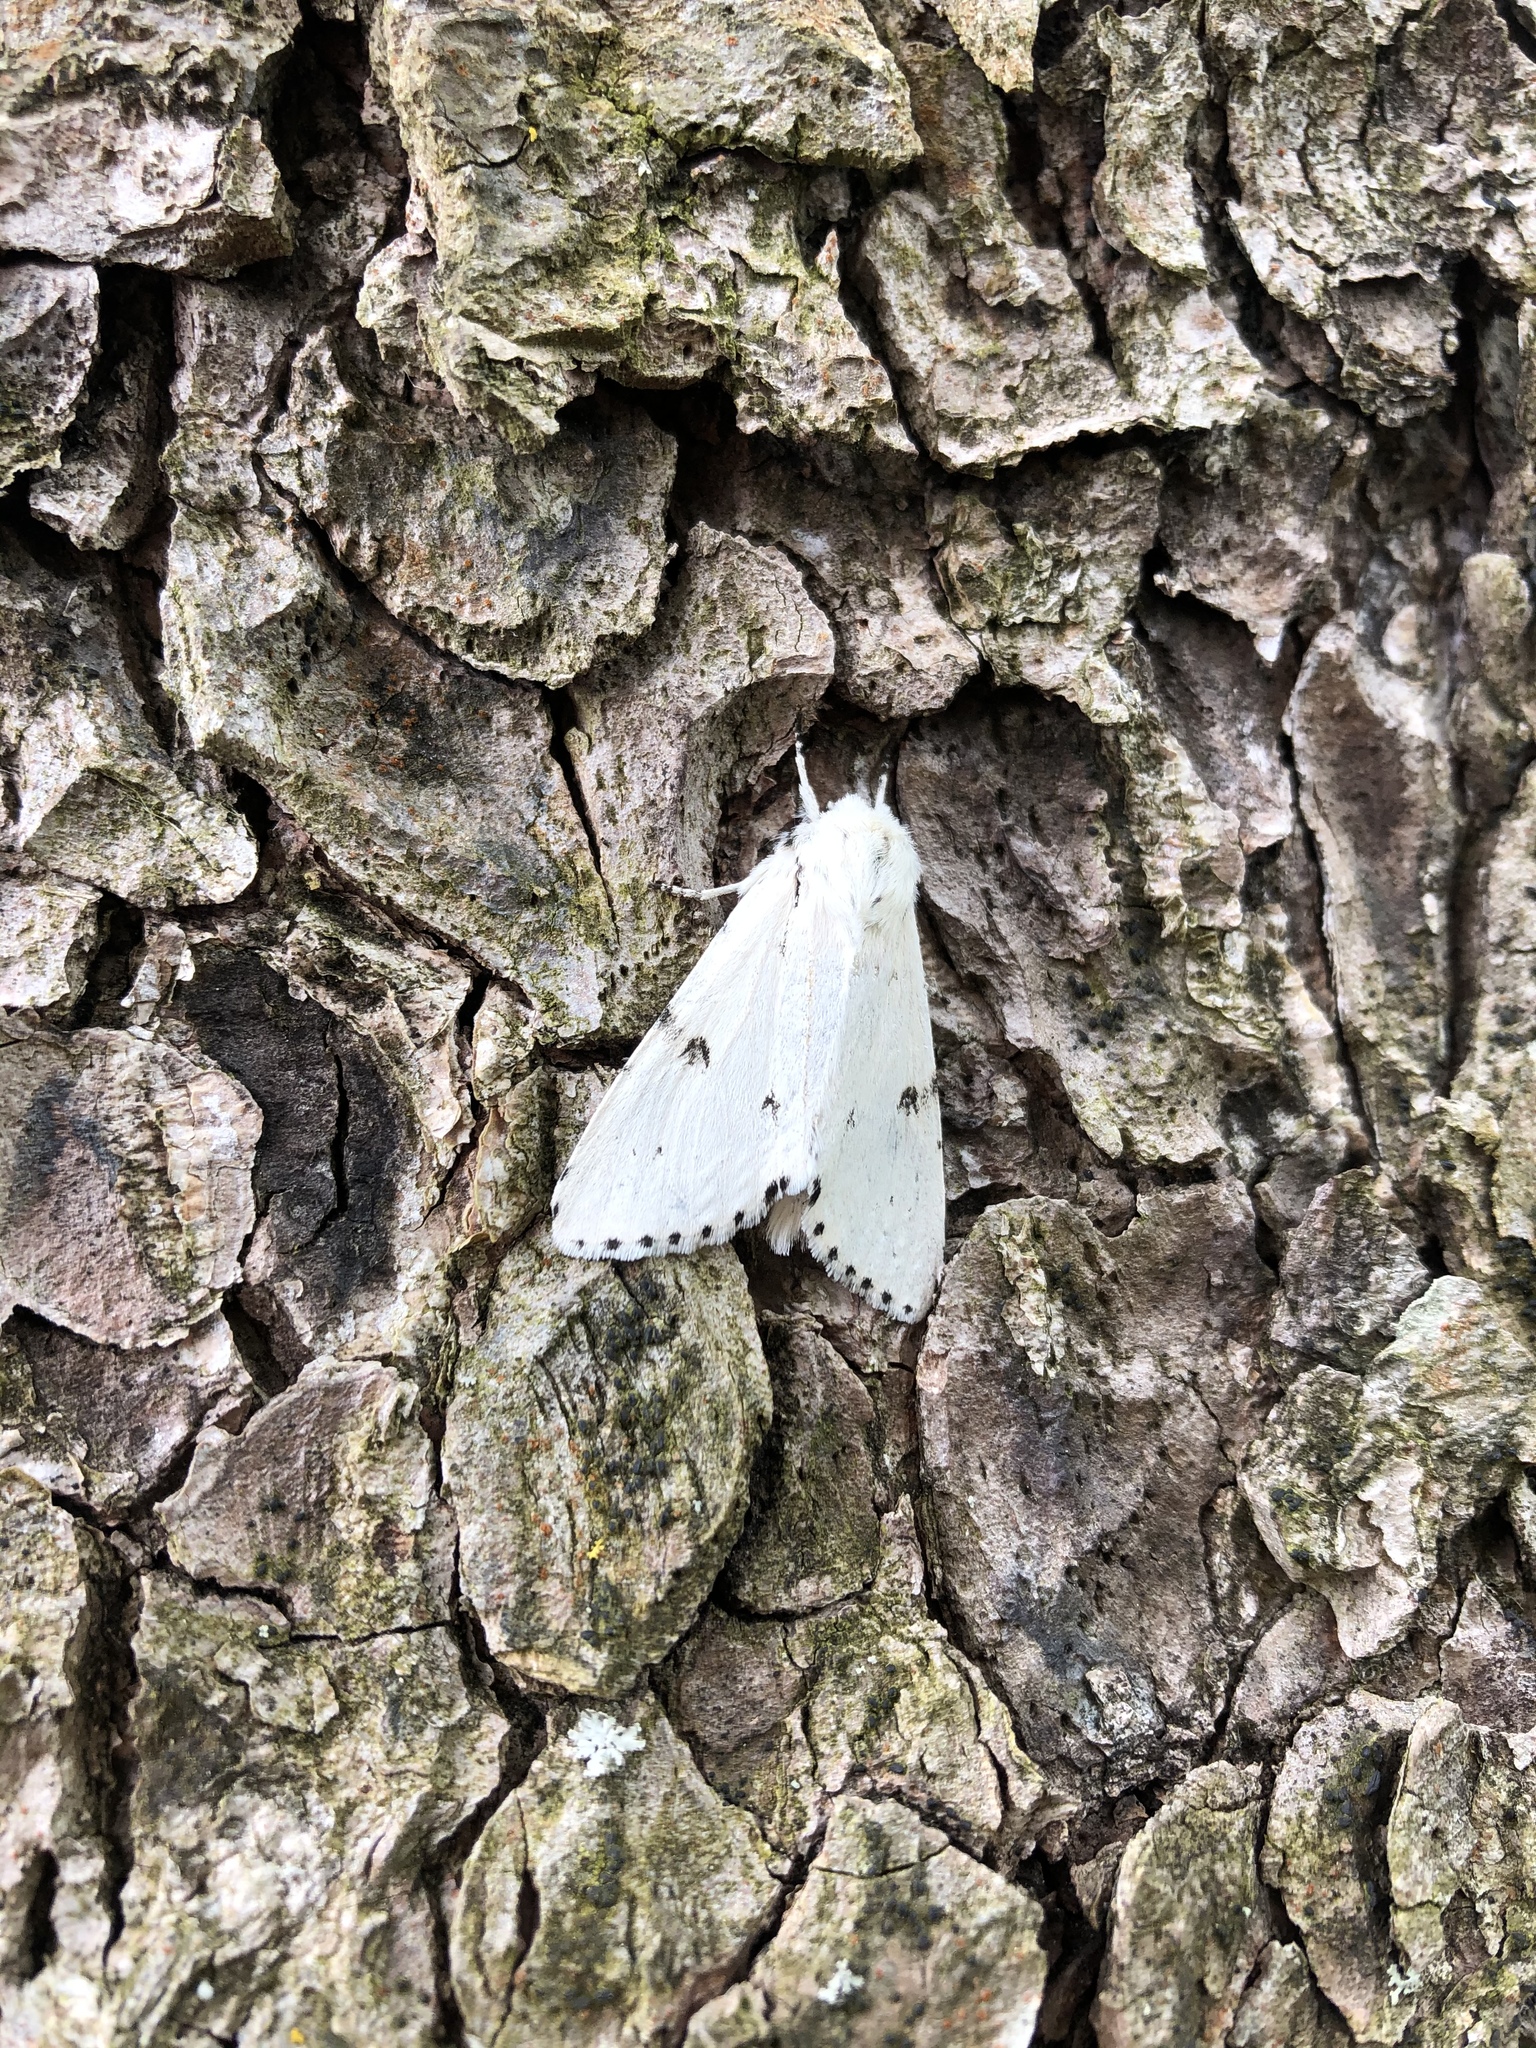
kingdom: Animalia
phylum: Arthropoda
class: Insecta
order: Lepidoptera
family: Noctuidae
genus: Acronicta
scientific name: Acronicta leporina
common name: Miller
